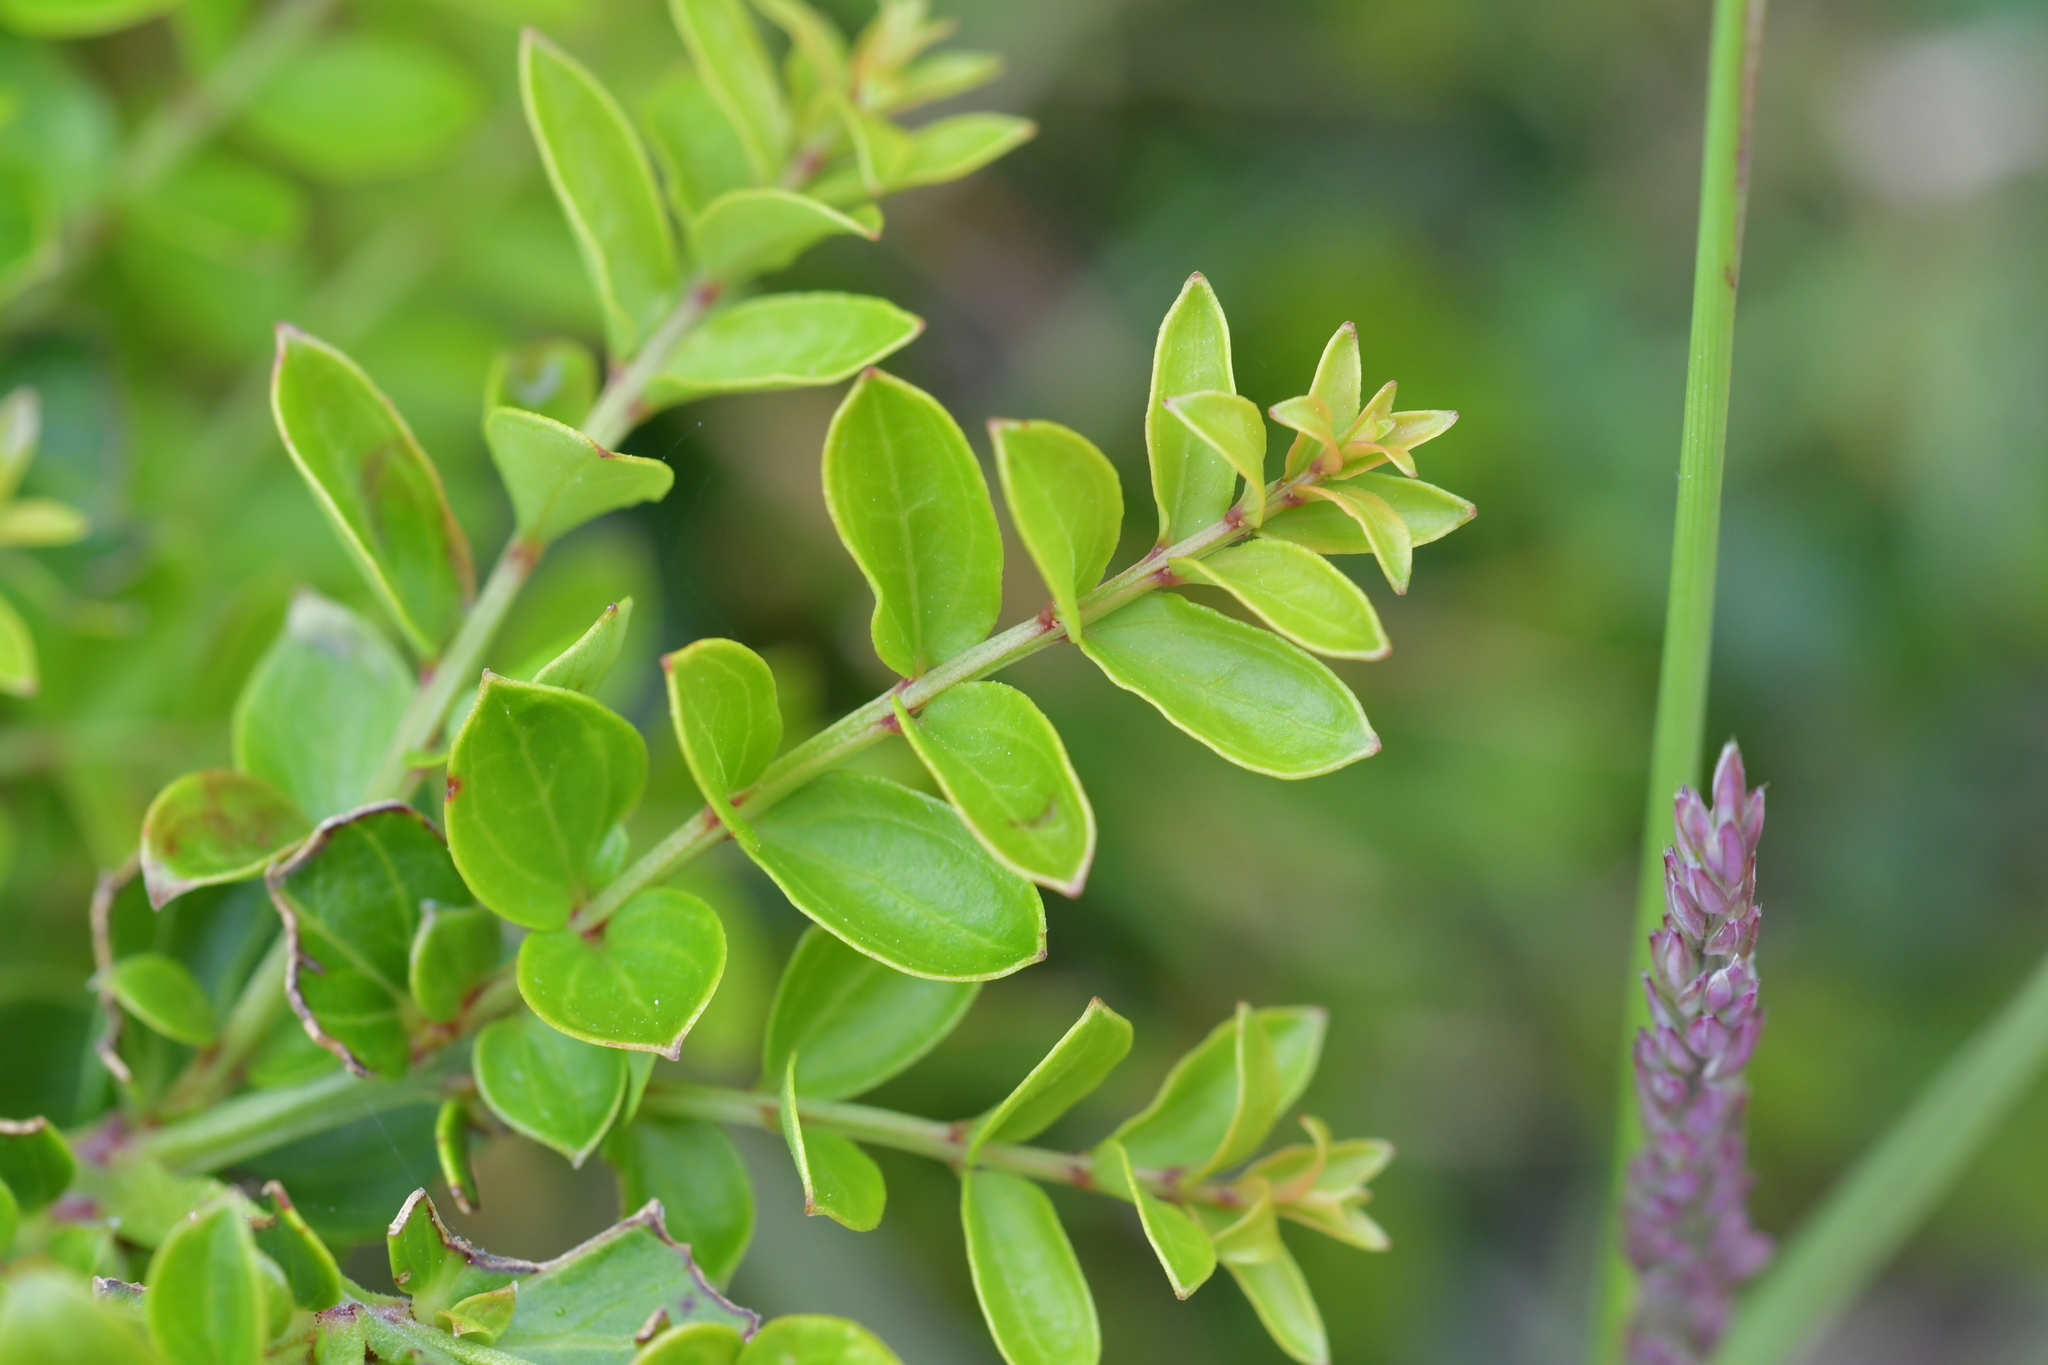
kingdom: Plantae
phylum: Tracheophyta
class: Magnoliopsida
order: Cucurbitales
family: Coriariaceae
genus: Coriaria
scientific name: Coriaria sarmentosa
